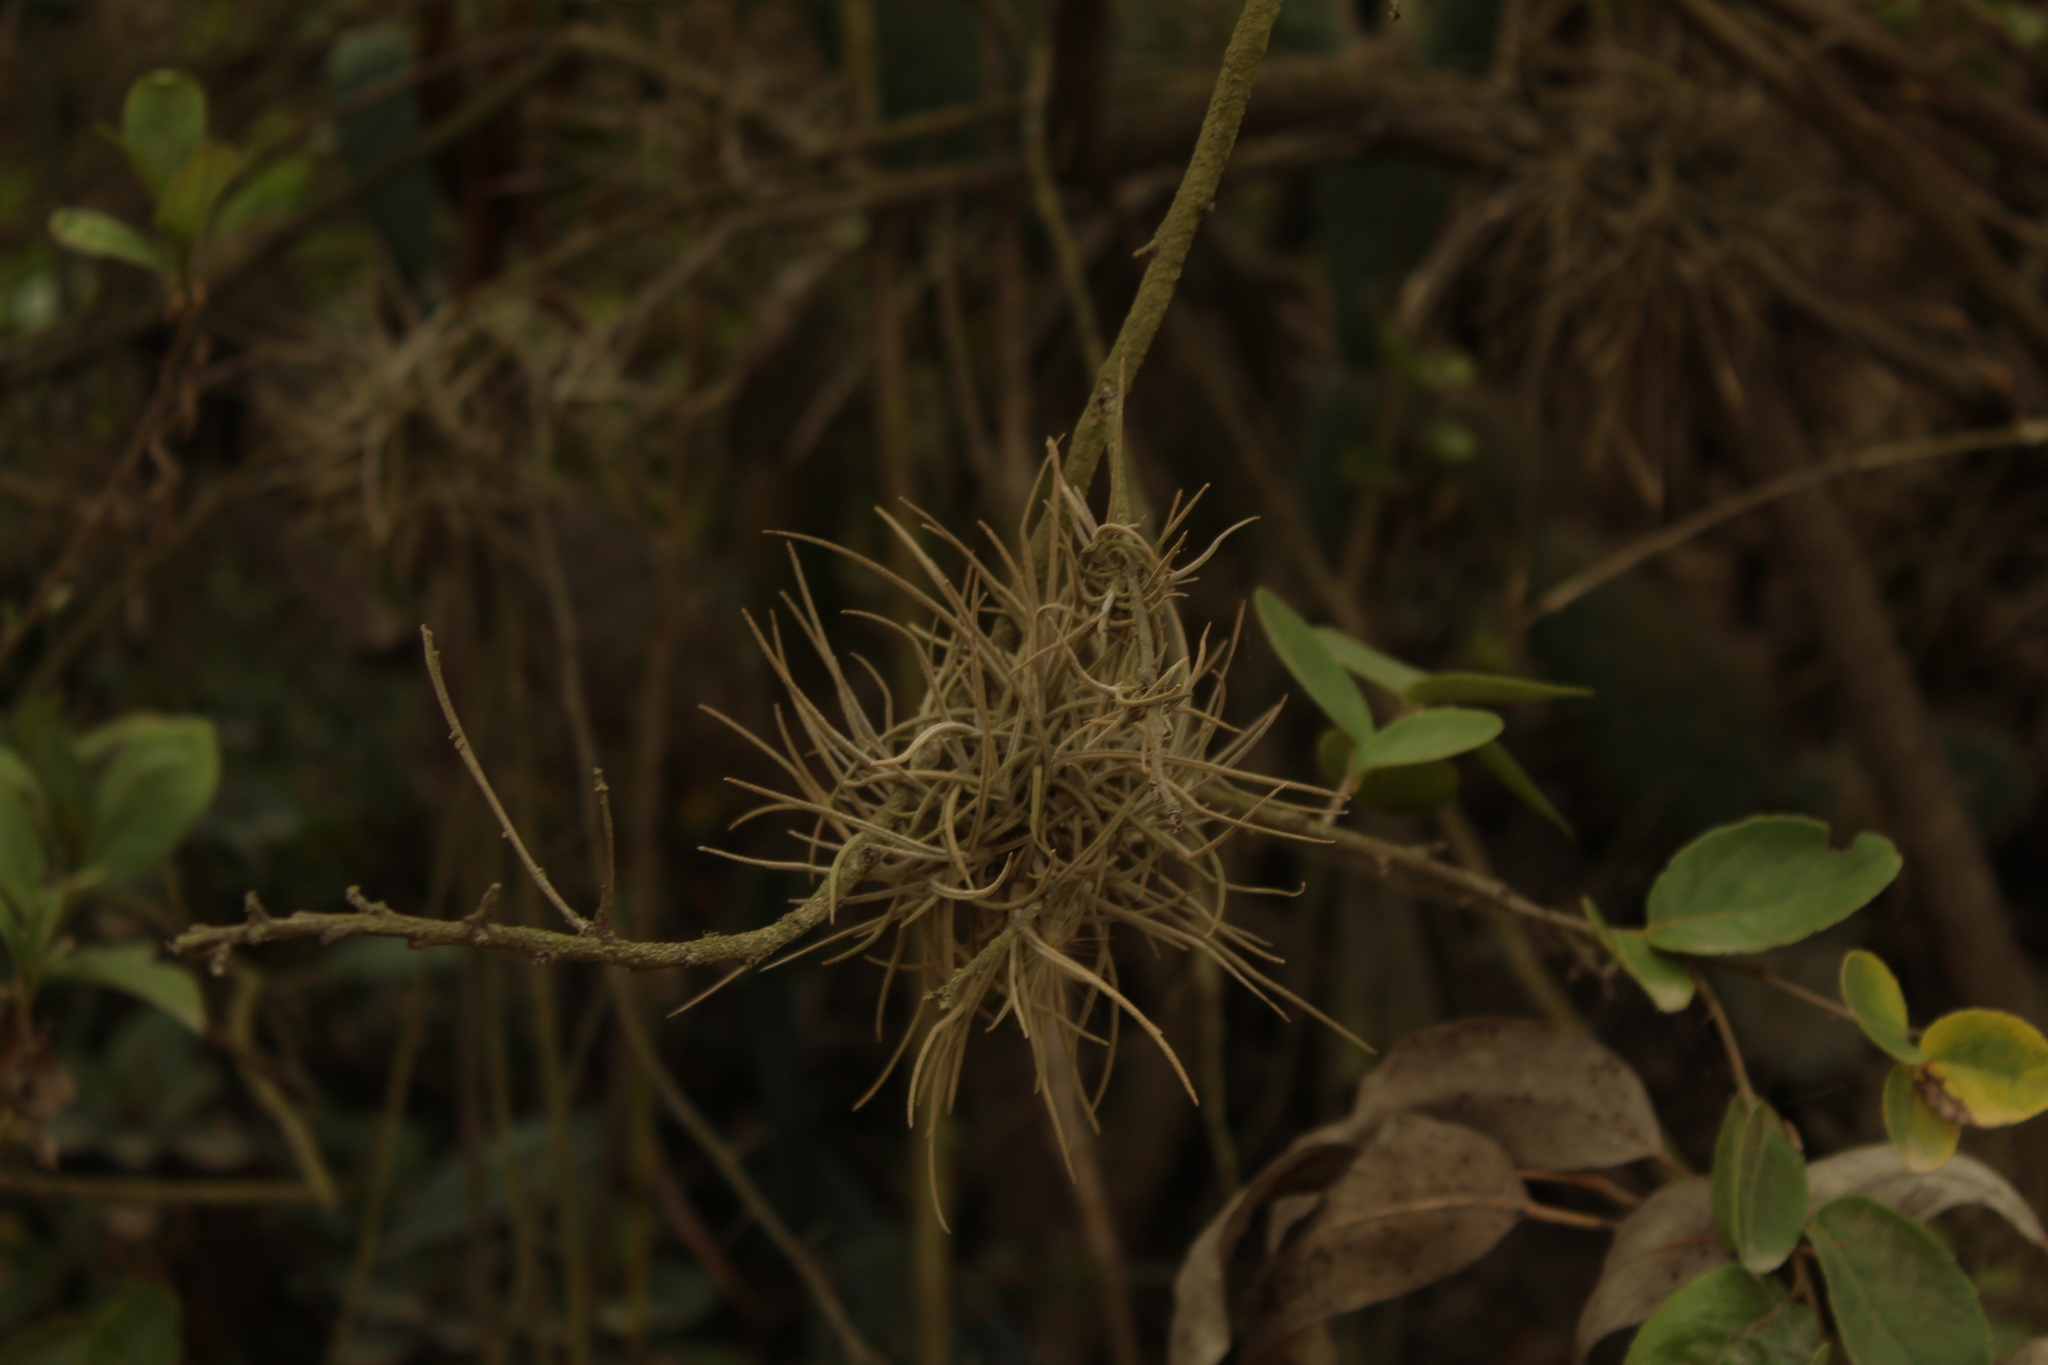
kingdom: Plantae
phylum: Tracheophyta
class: Liliopsida
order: Poales
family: Bromeliaceae
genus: Tillandsia
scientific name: Tillandsia recurvata
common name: Small ballmoss
